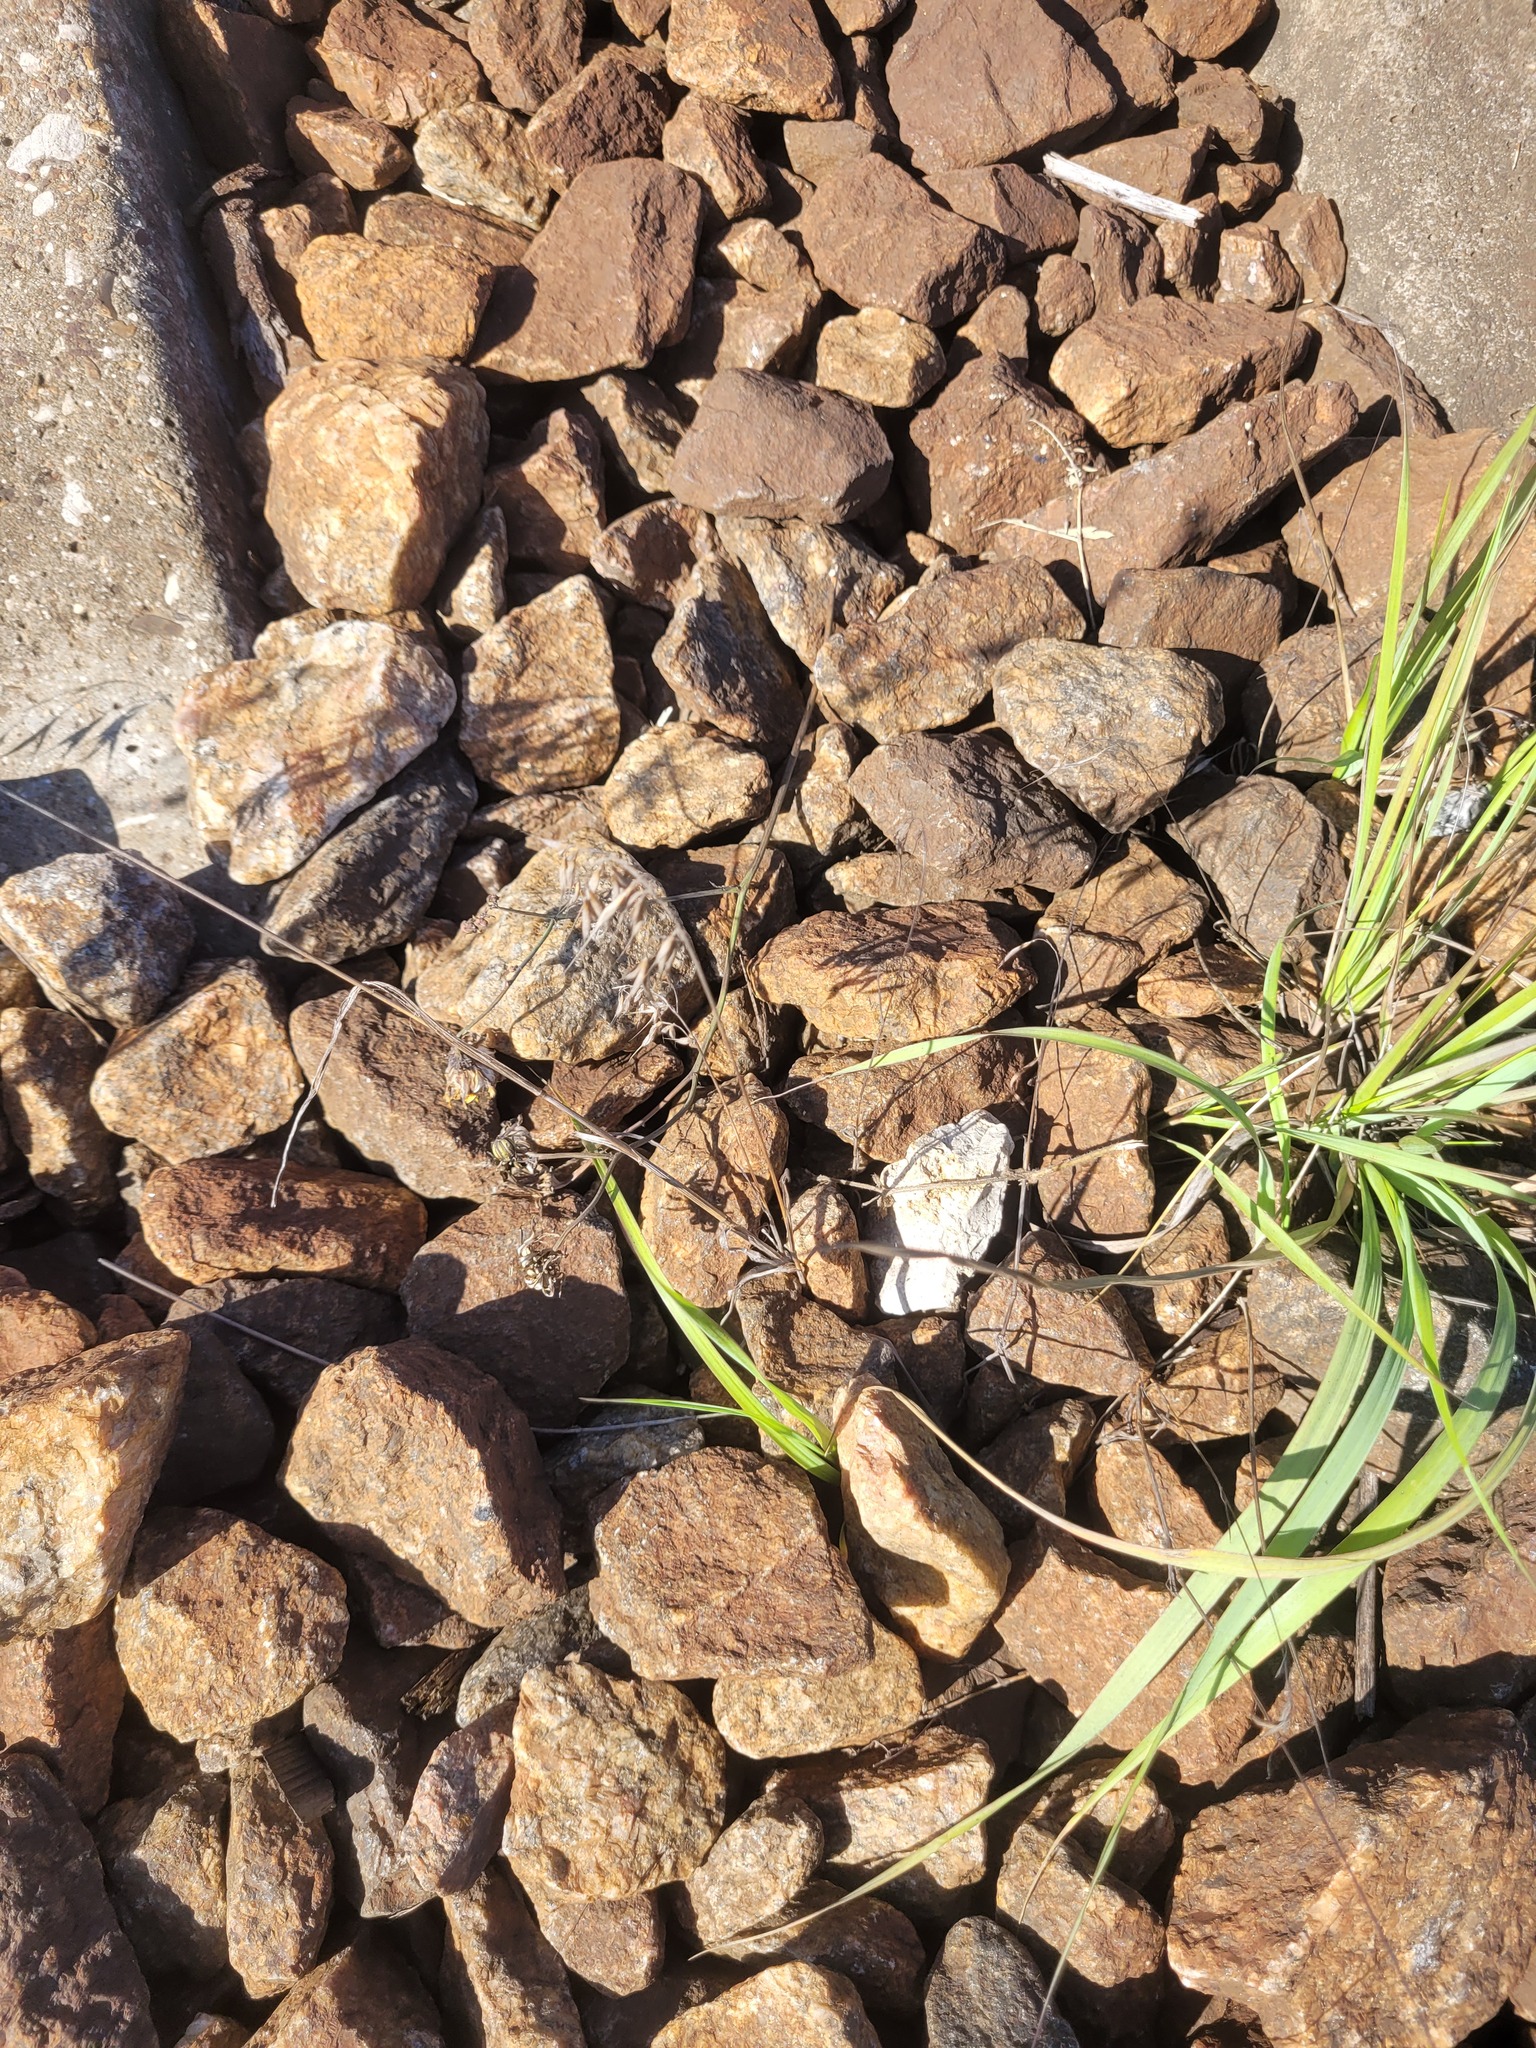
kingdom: Plantae
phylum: Tracheophyta
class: Liliopsida
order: Poales
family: Poaceae
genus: Bromus
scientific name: Bromus tectorum
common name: Cheatgrass
